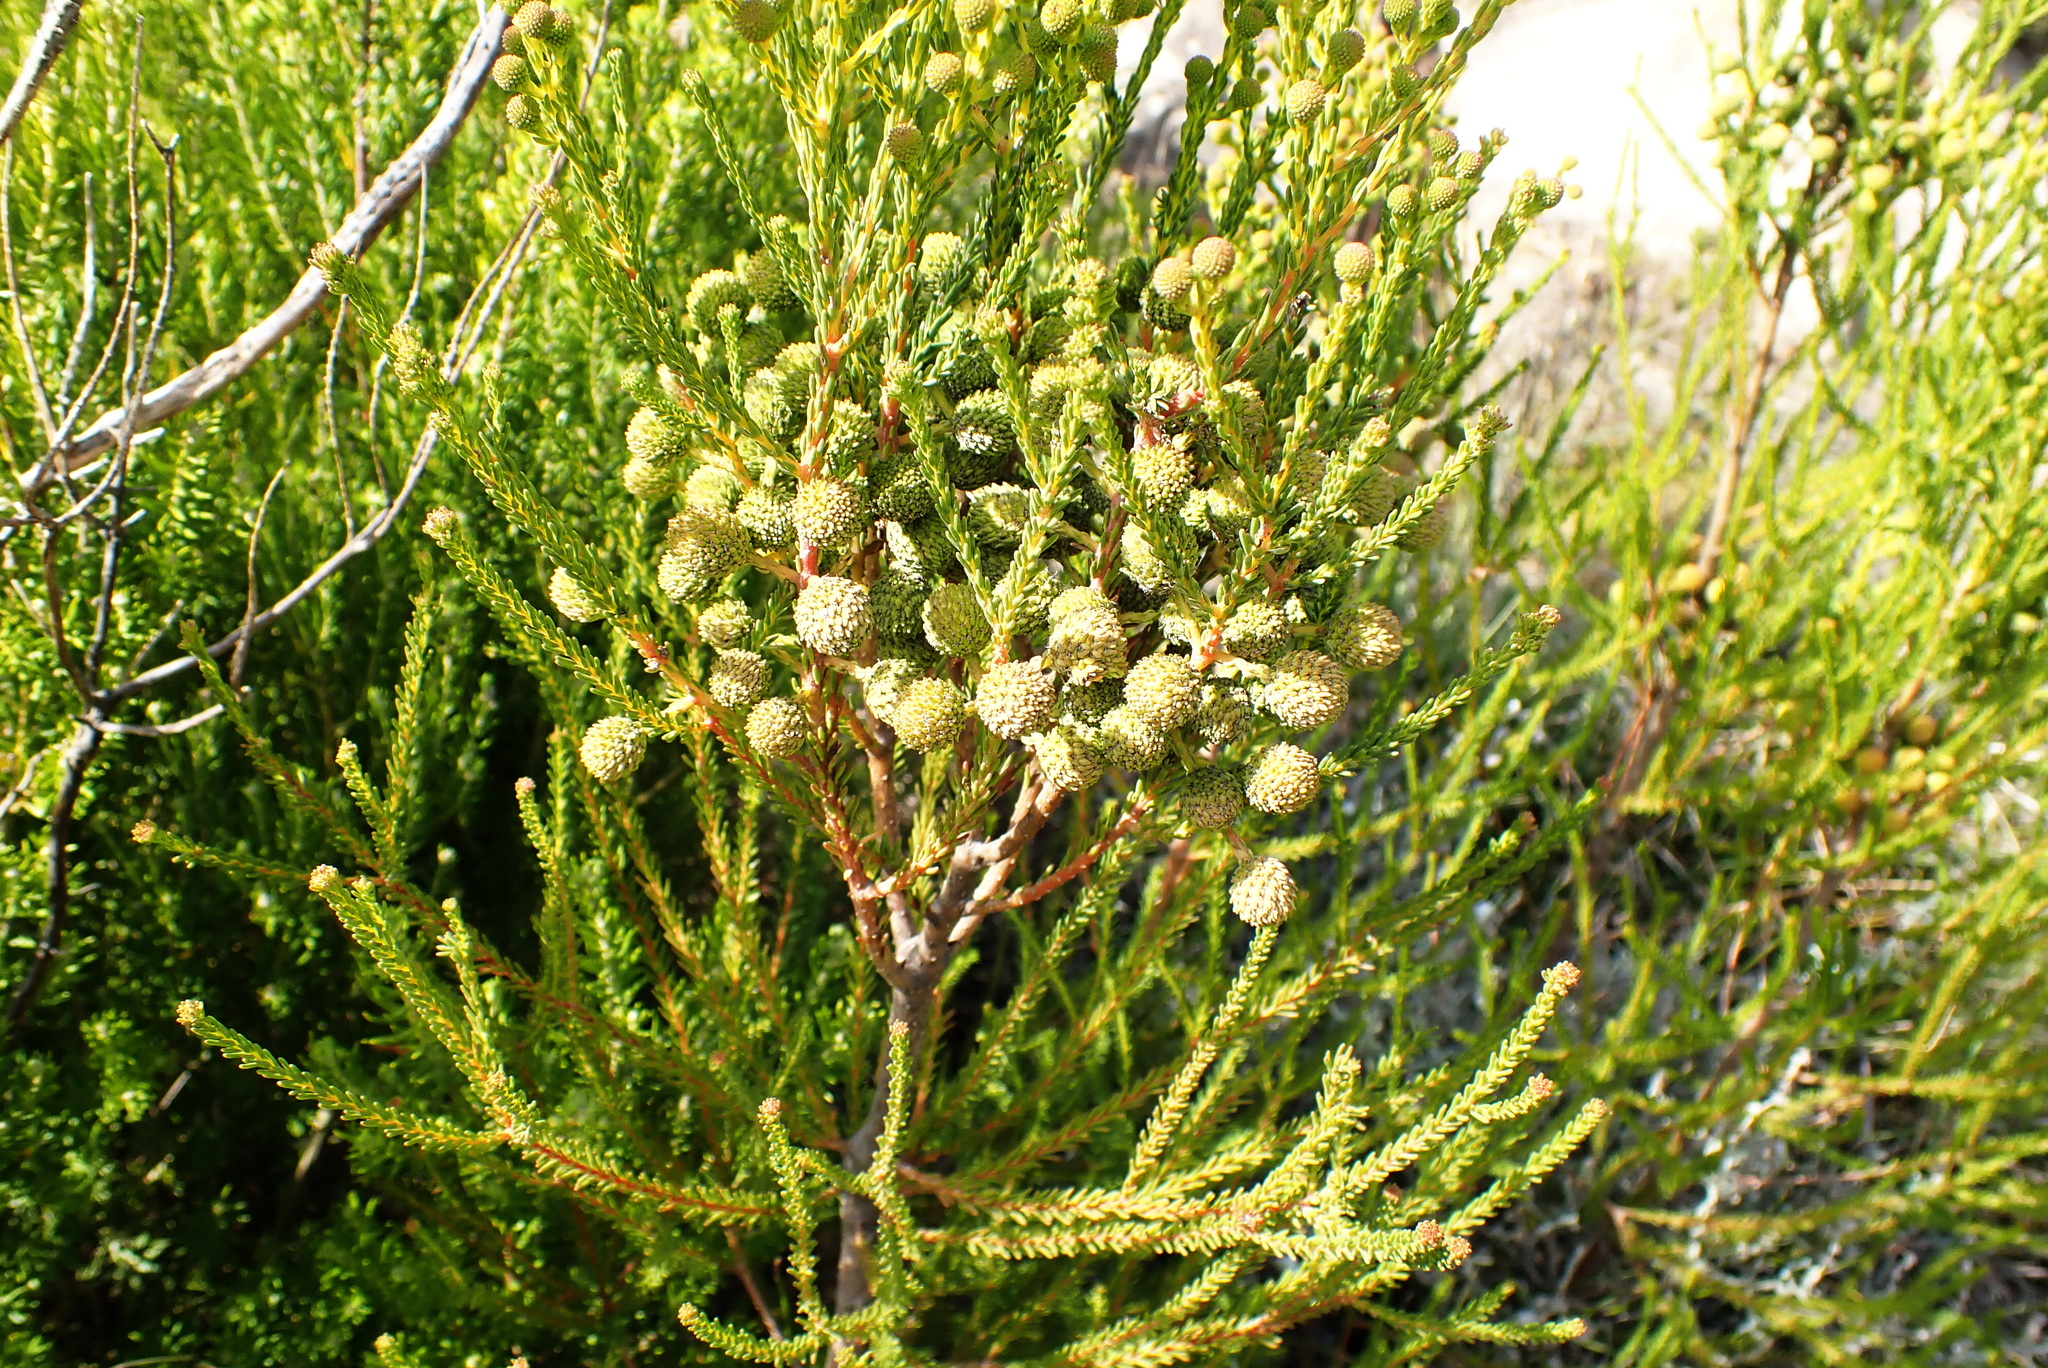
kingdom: Plantae
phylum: Tracheophyta
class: Magnoliopsida
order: Bruniales
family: Bruniaceae
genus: Berzelia
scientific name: Berzelia intermedia
